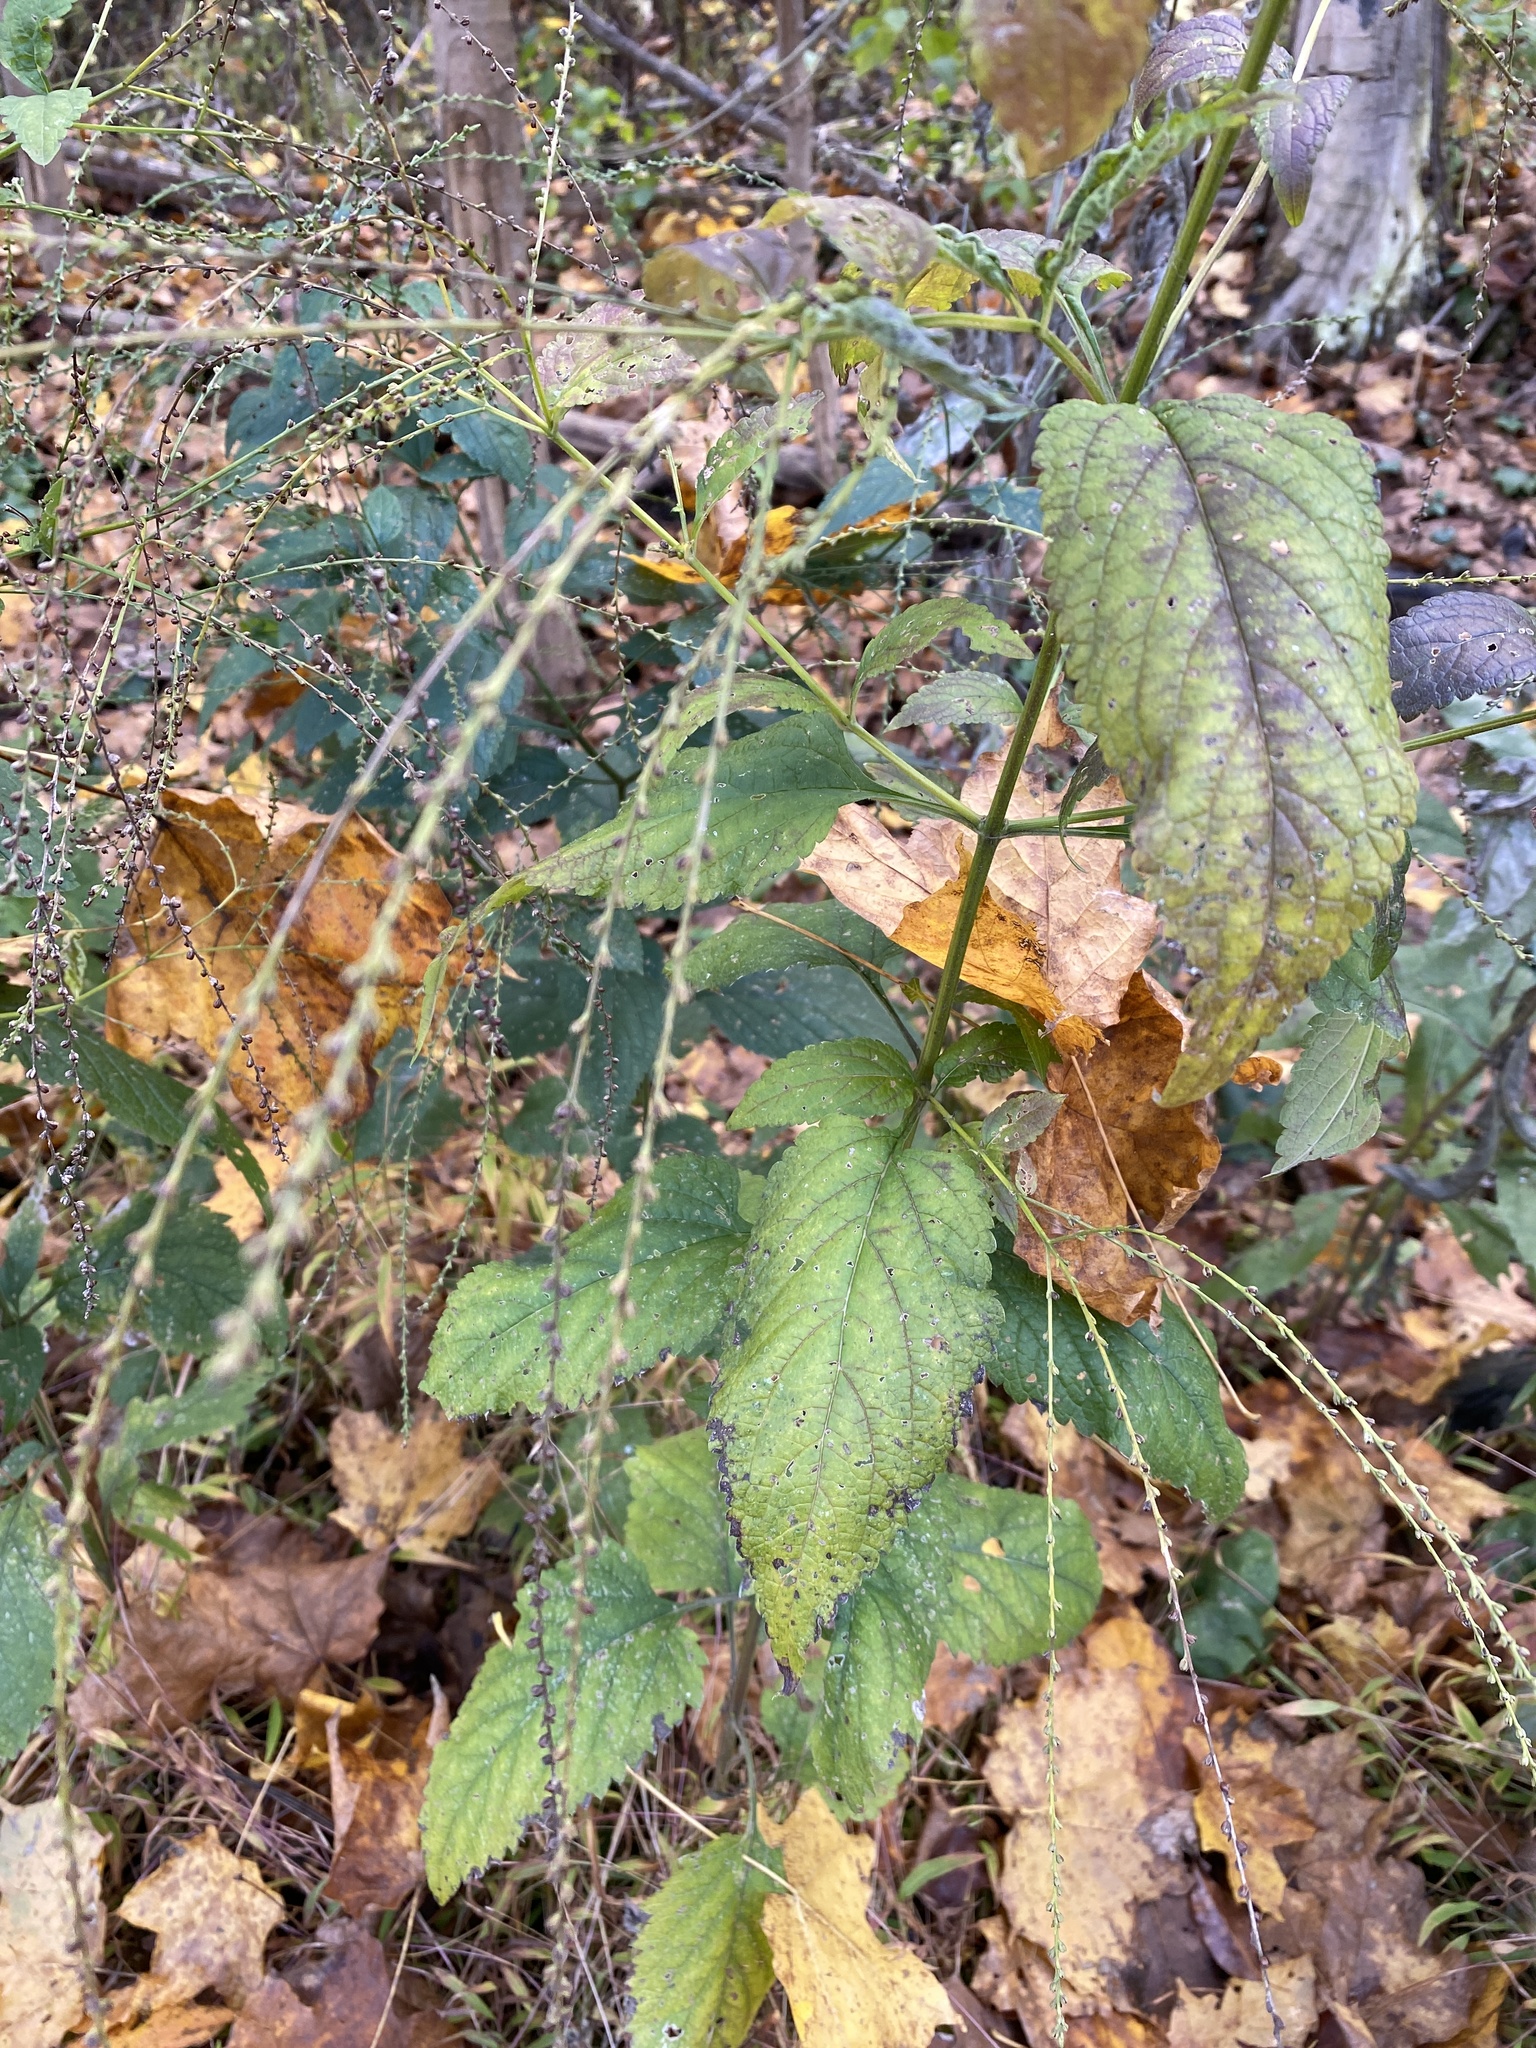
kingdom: Plantae
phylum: Tracheophyta
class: Magnoliopsida
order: Lamiales
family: Verbenaceae
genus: Verbena
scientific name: Verbena urticifolia
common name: Nettle-leaved vervain
